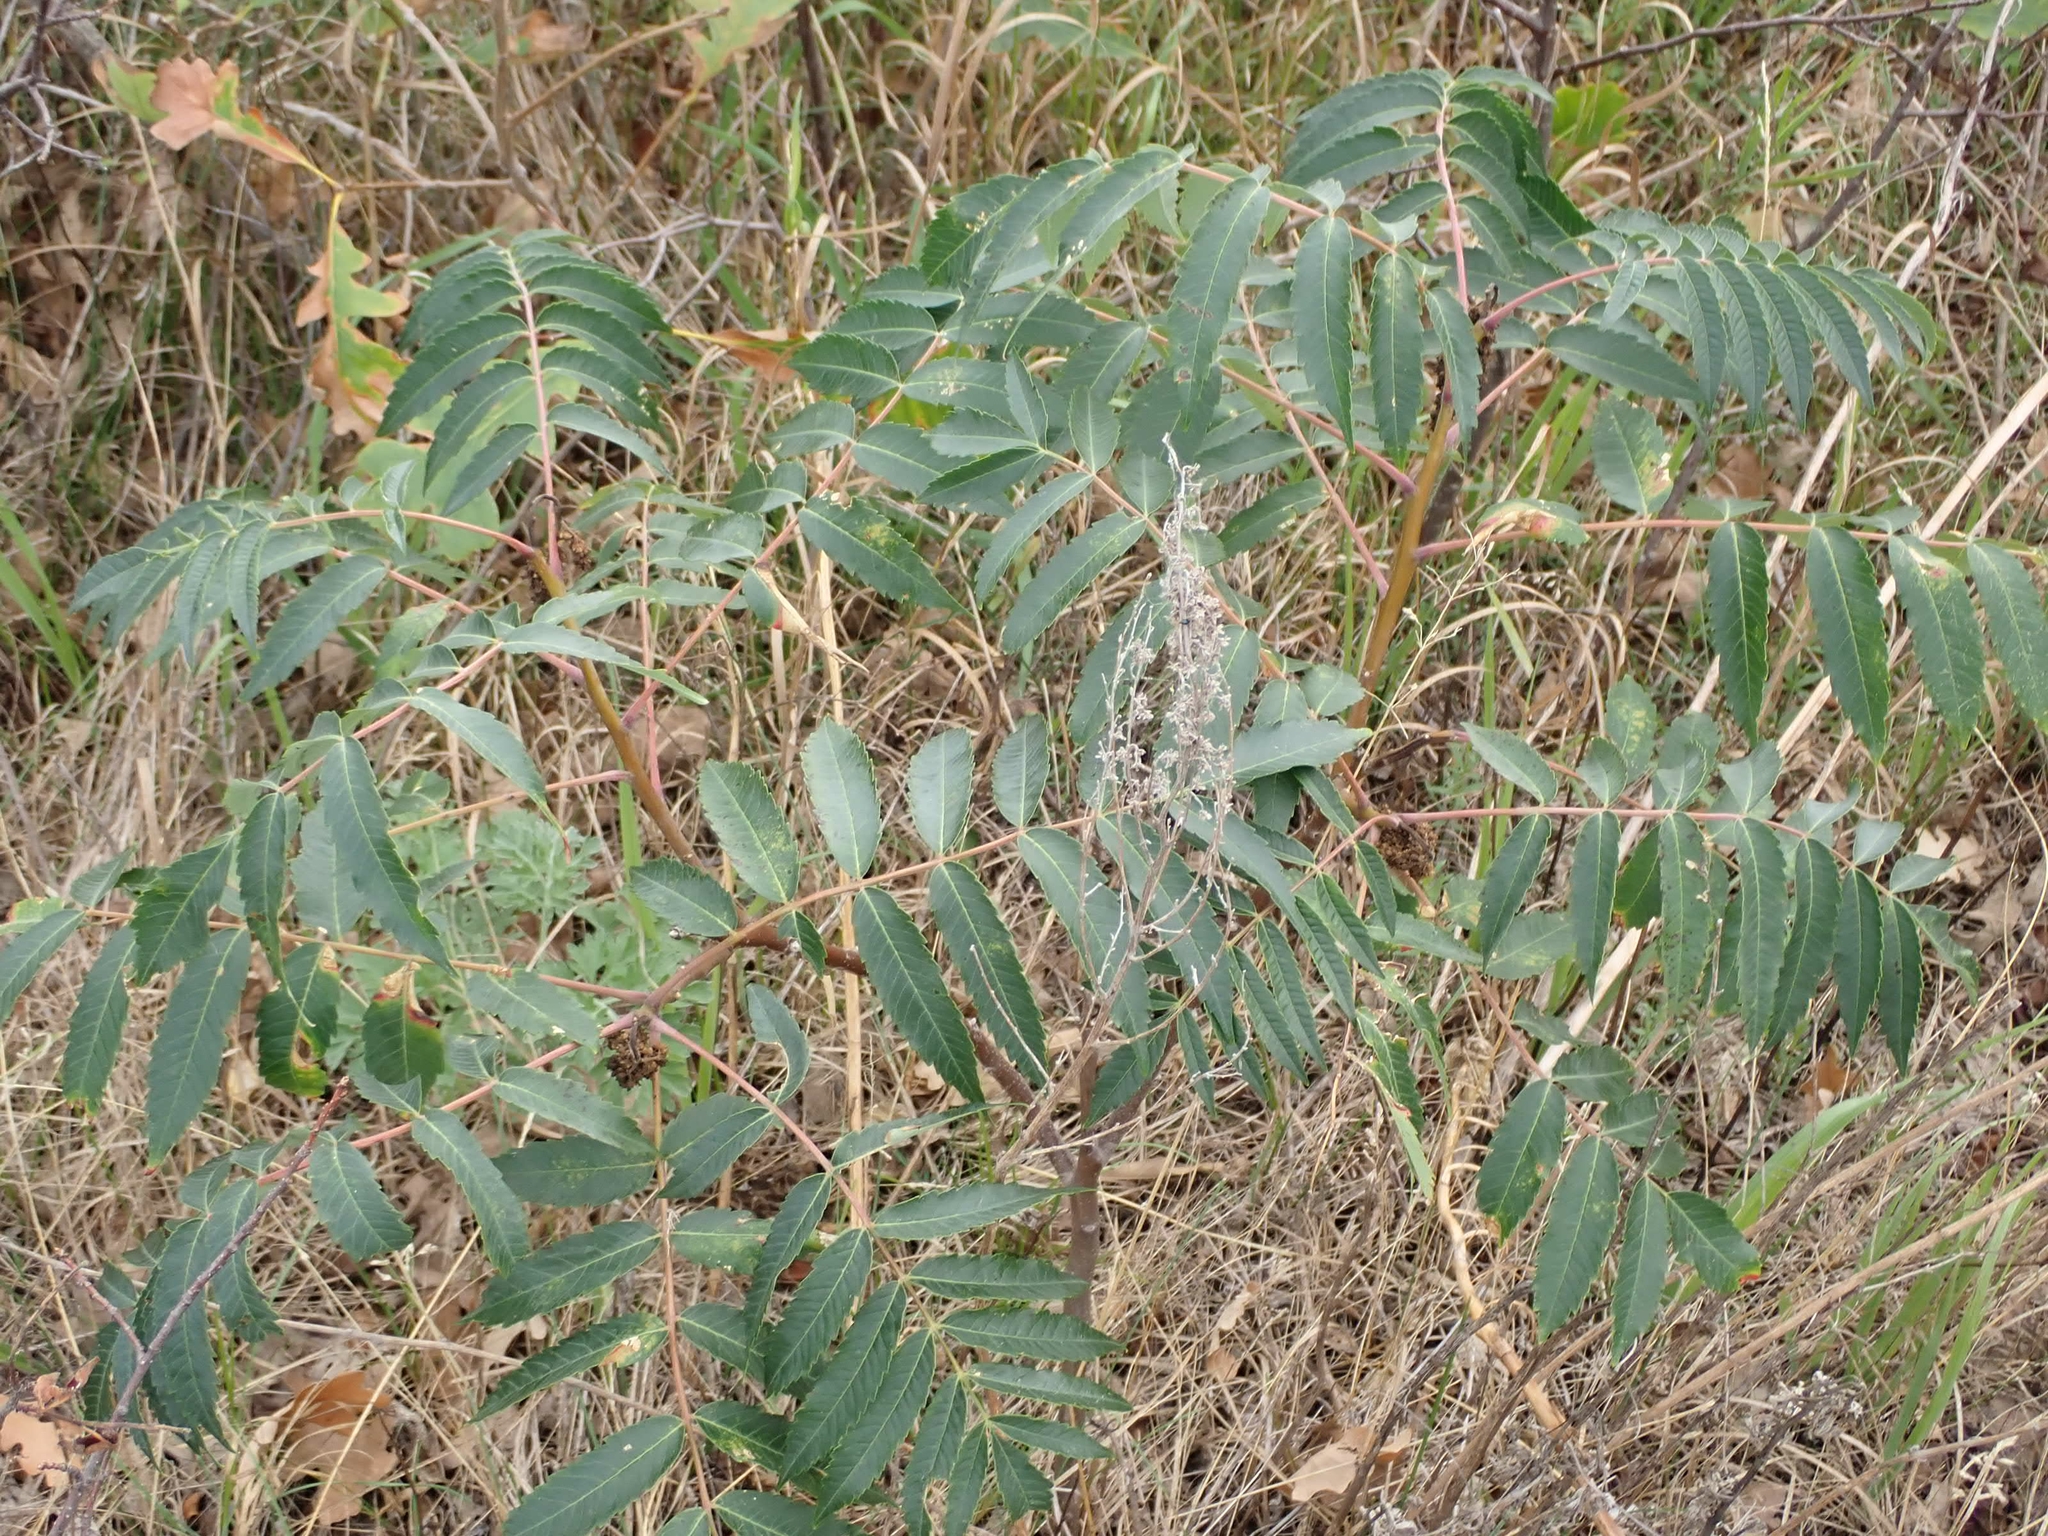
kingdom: Plantae
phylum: Tracheophyta
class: Magnoliopsida
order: Sapindales
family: Anacardiaceae
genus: Rhus
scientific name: Rhus glabra
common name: Scarlet sumac
